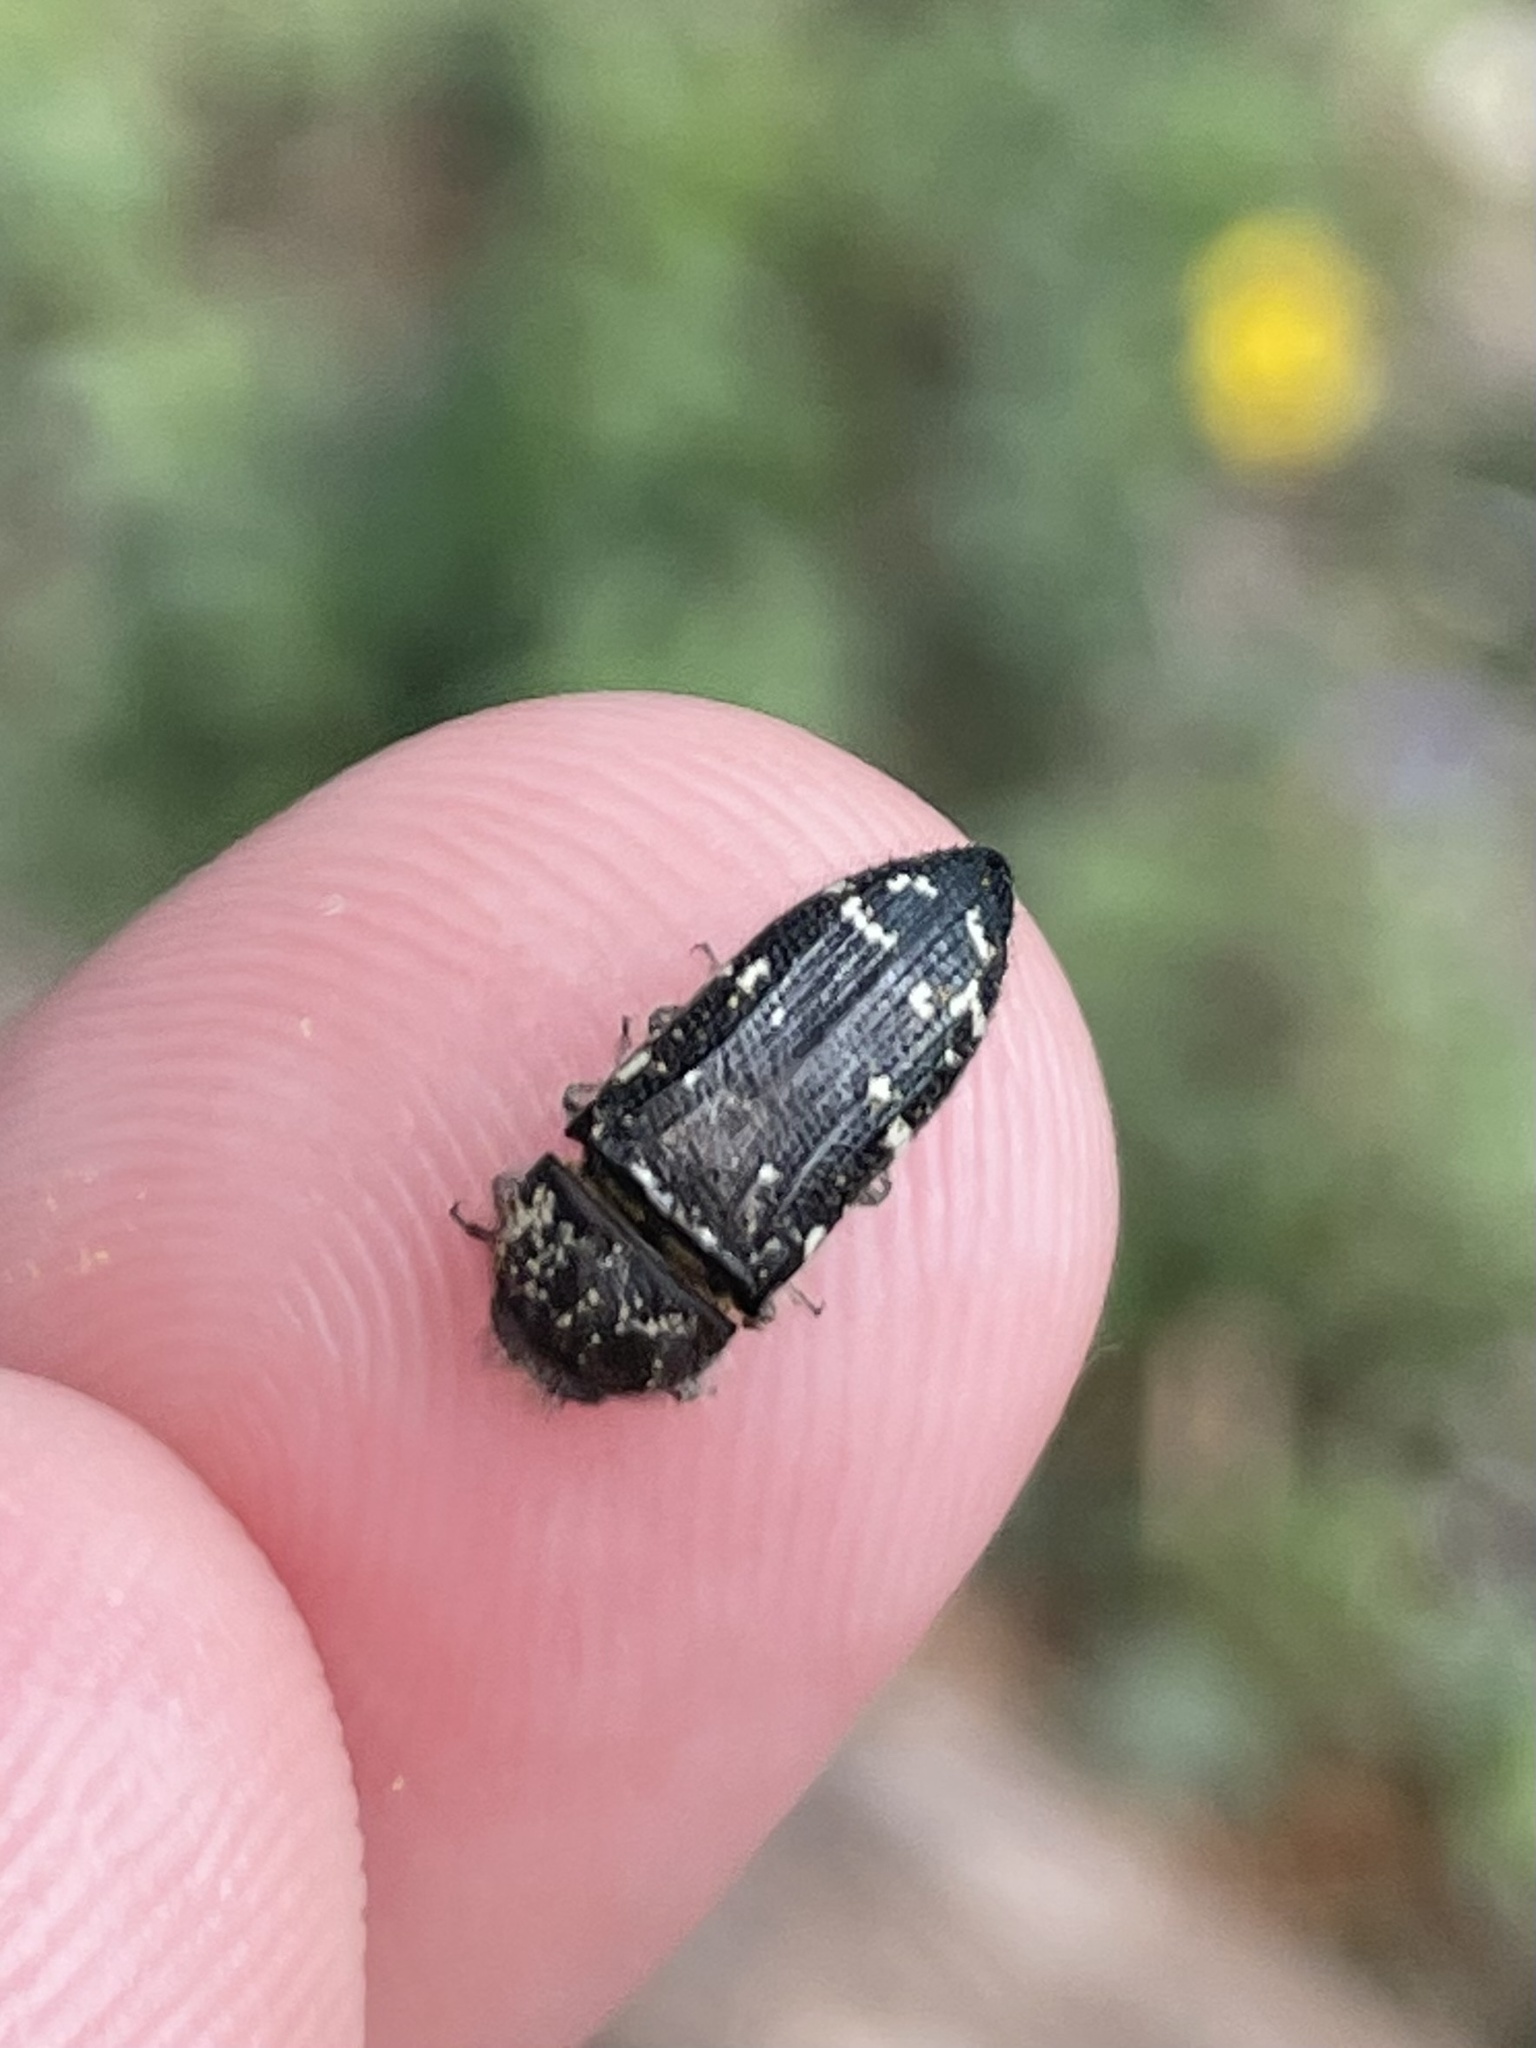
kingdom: Animalia
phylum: Arthropoda
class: Insecta
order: Coleoptera
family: Buprestidae
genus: Acmaeodera
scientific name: Acmaeodera ornatoides
